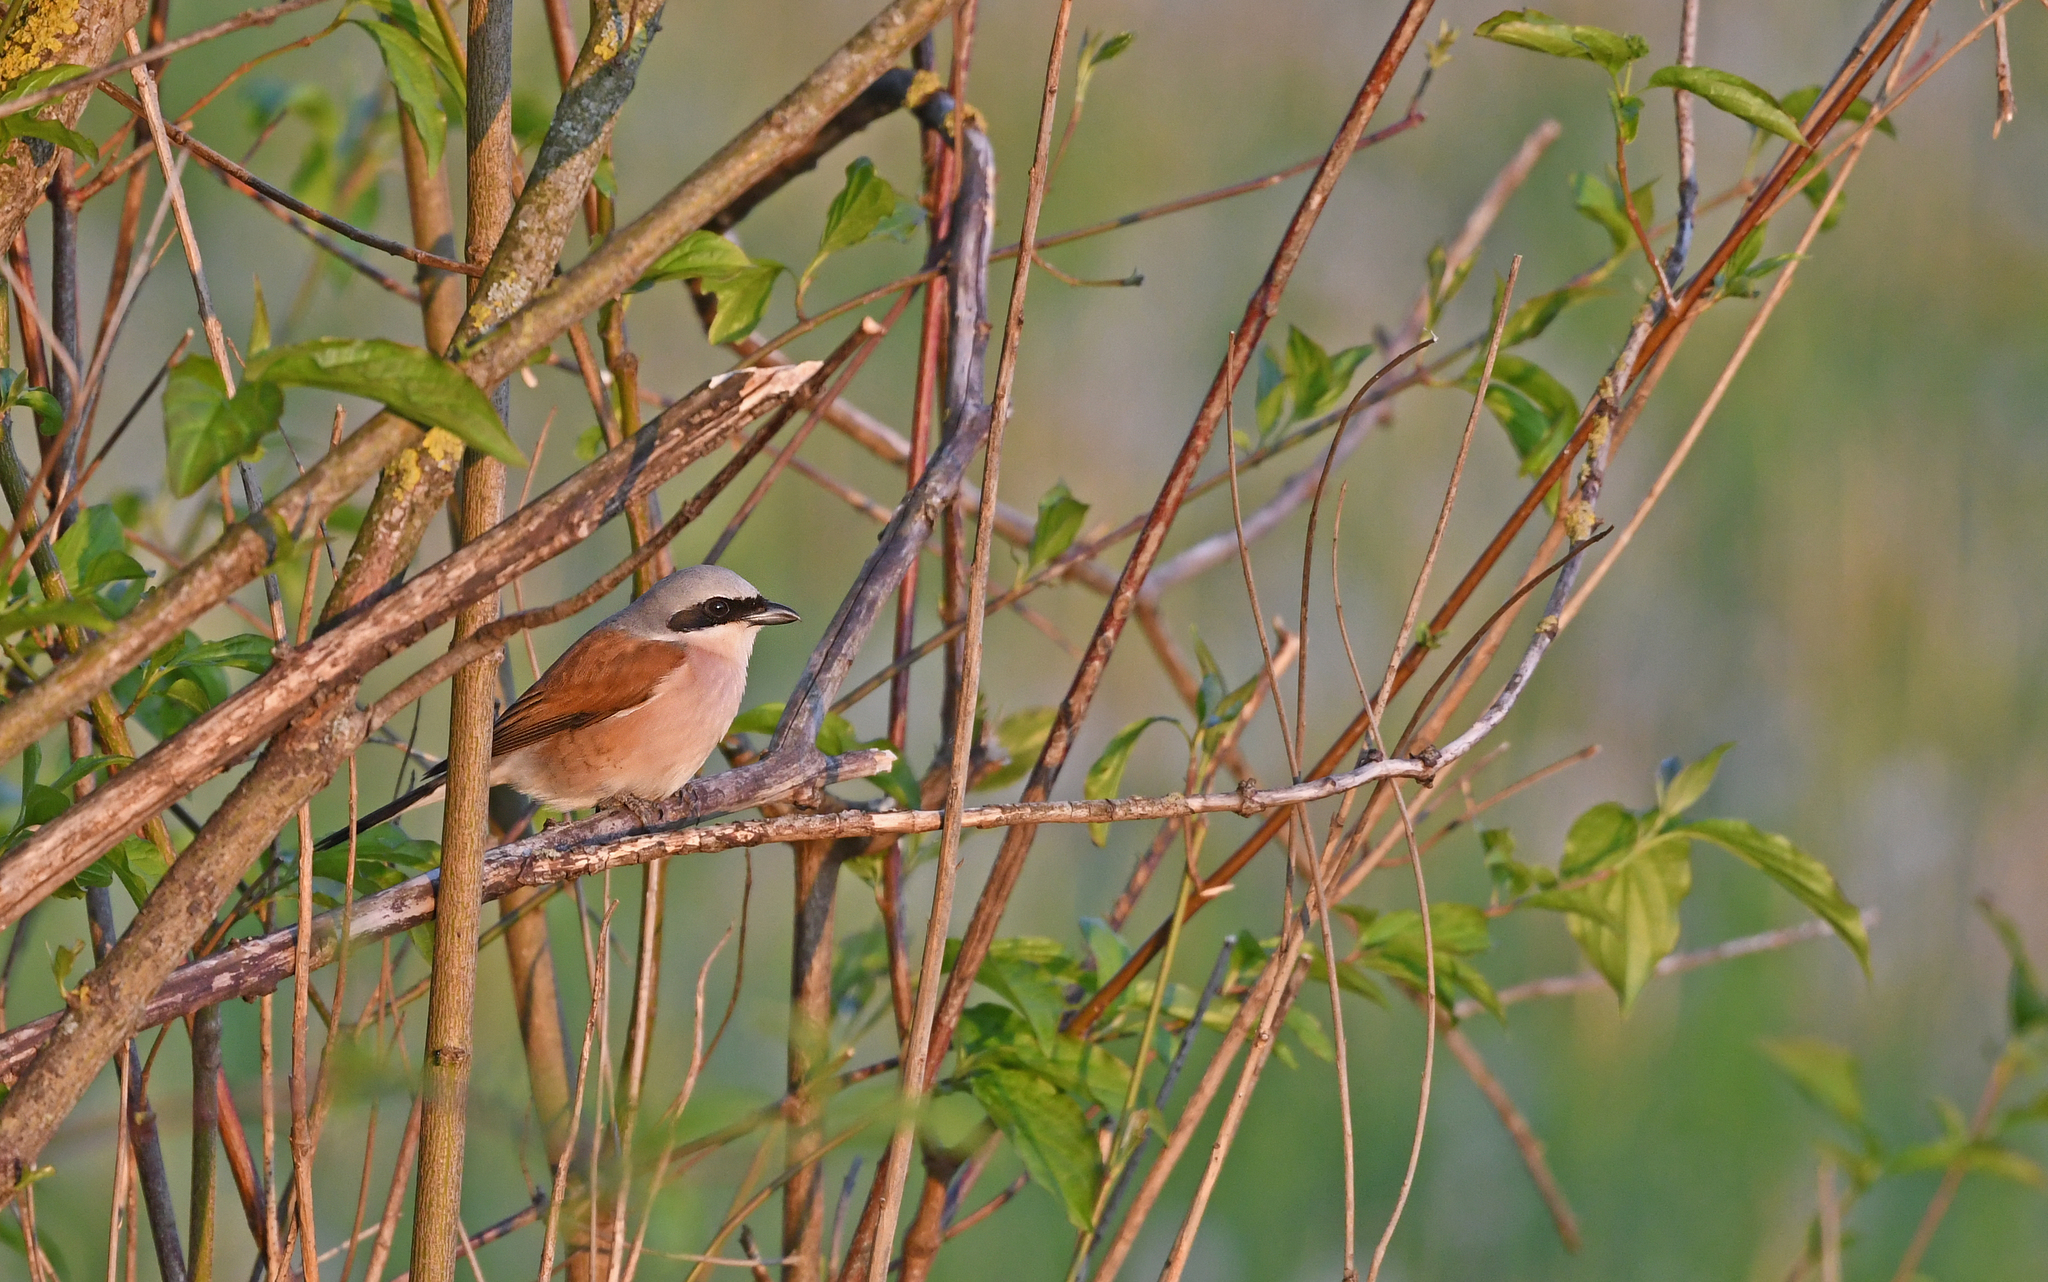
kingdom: Animalia
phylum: Chordata
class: Aves
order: Passeriformes
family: Laniidae
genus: Lanius
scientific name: Lanius collurio
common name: Red-backed shrike
